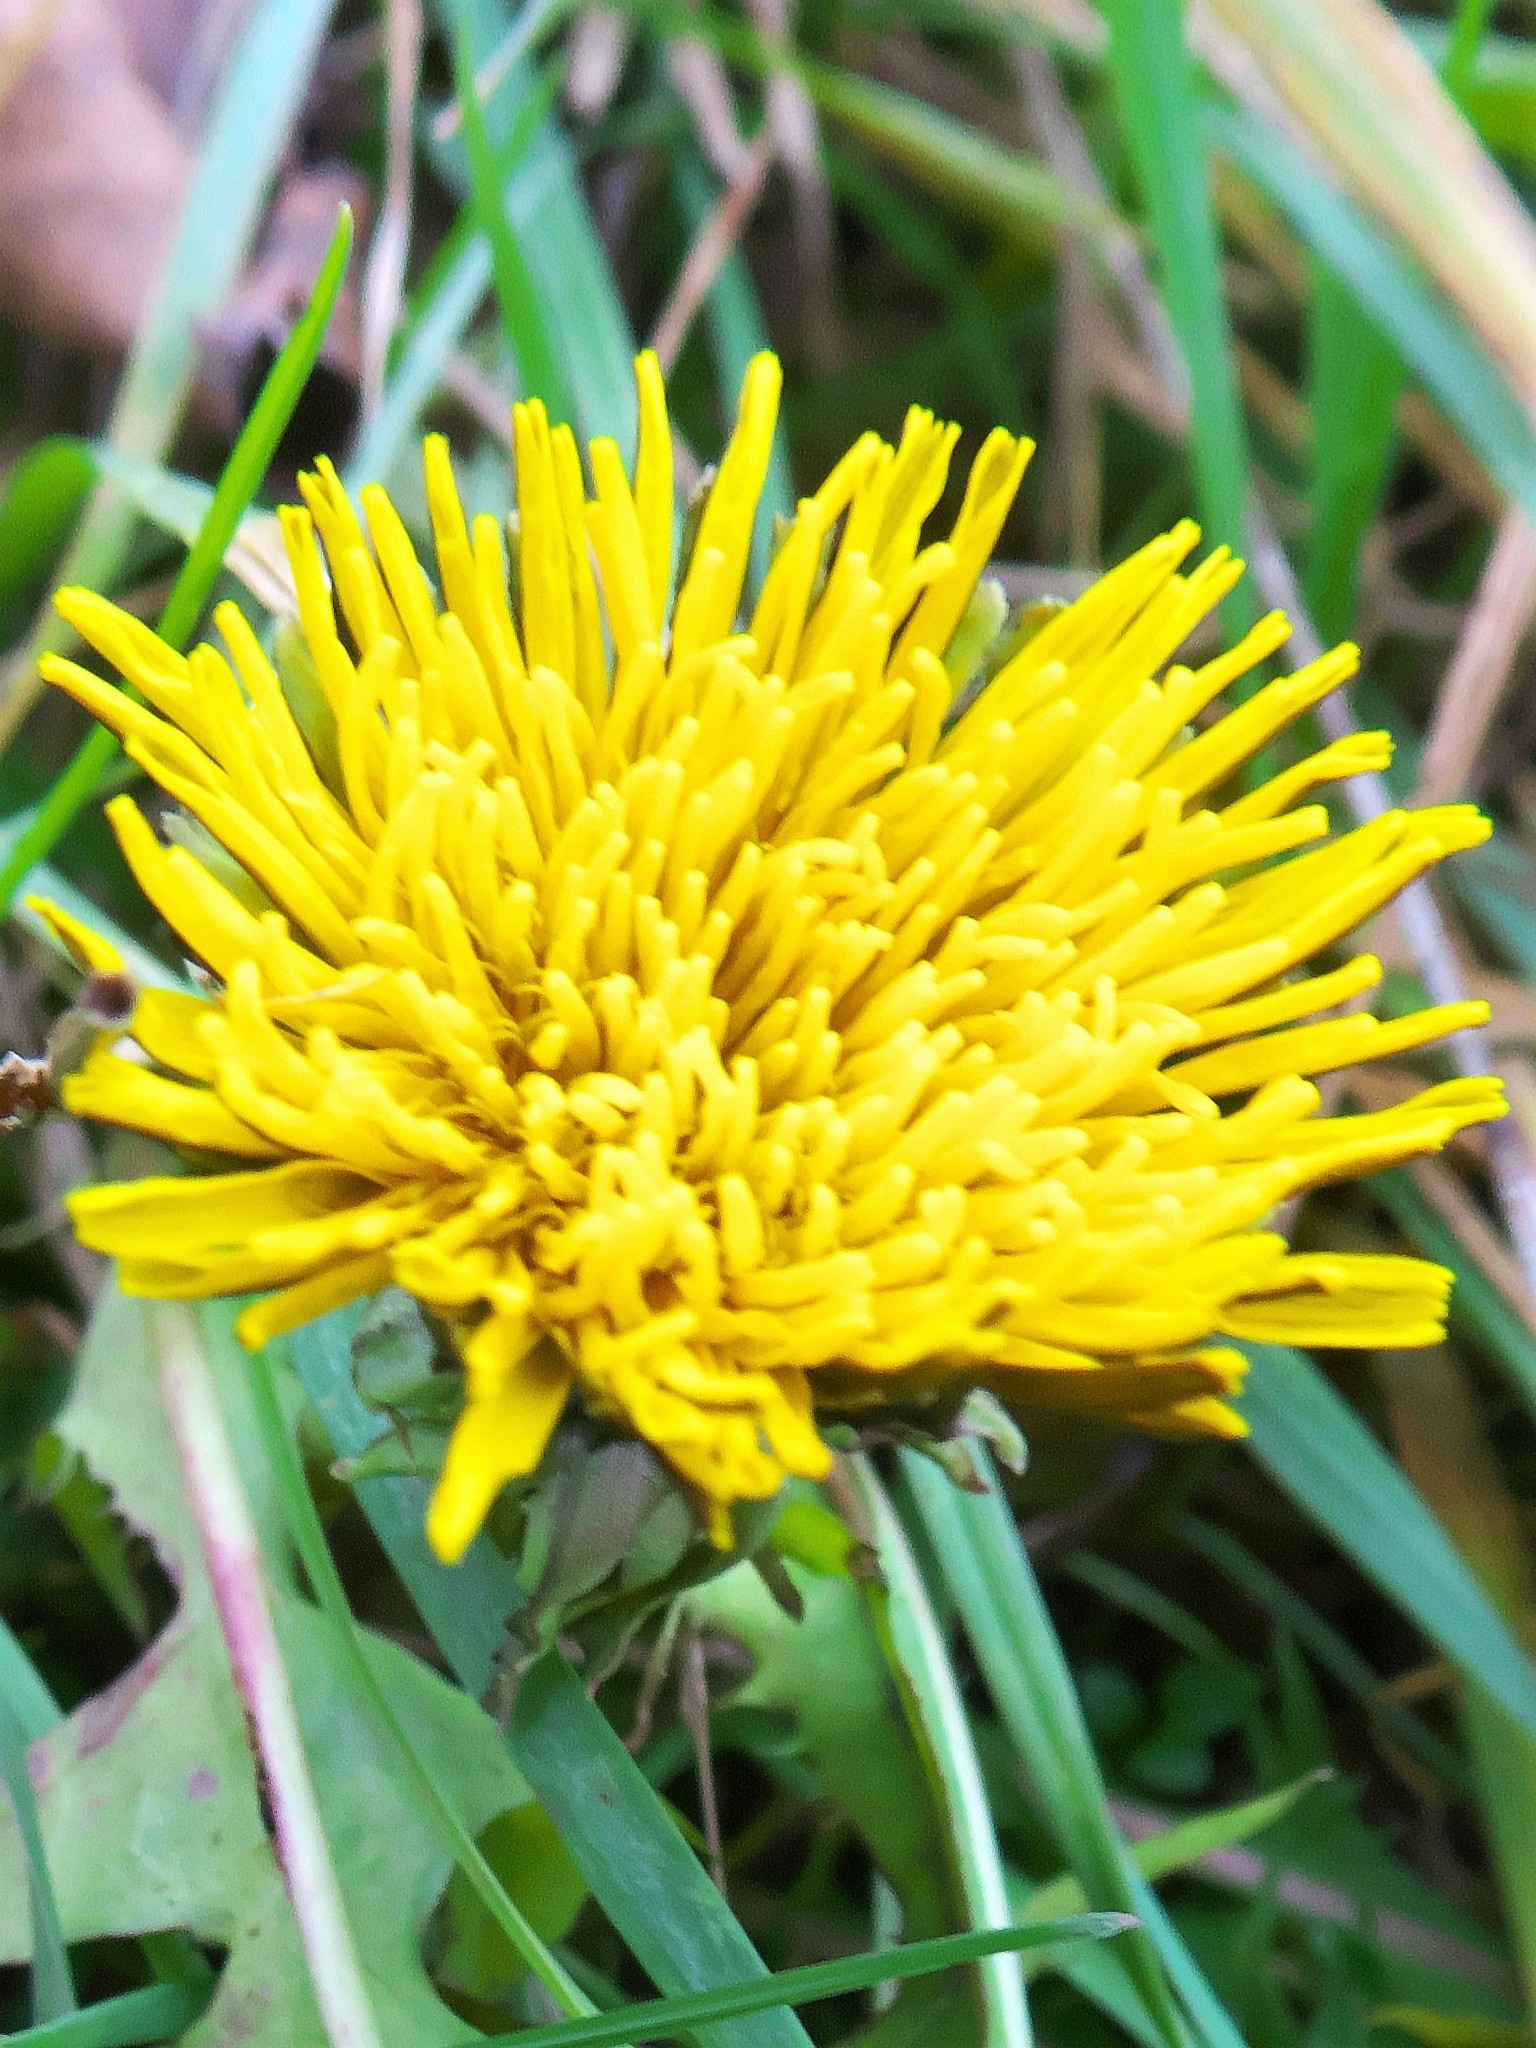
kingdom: Plantae
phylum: Tracheophyta
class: Magnoliopsida
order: Asterales
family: Asteraceae
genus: Taraxacum
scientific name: Taraxacum
